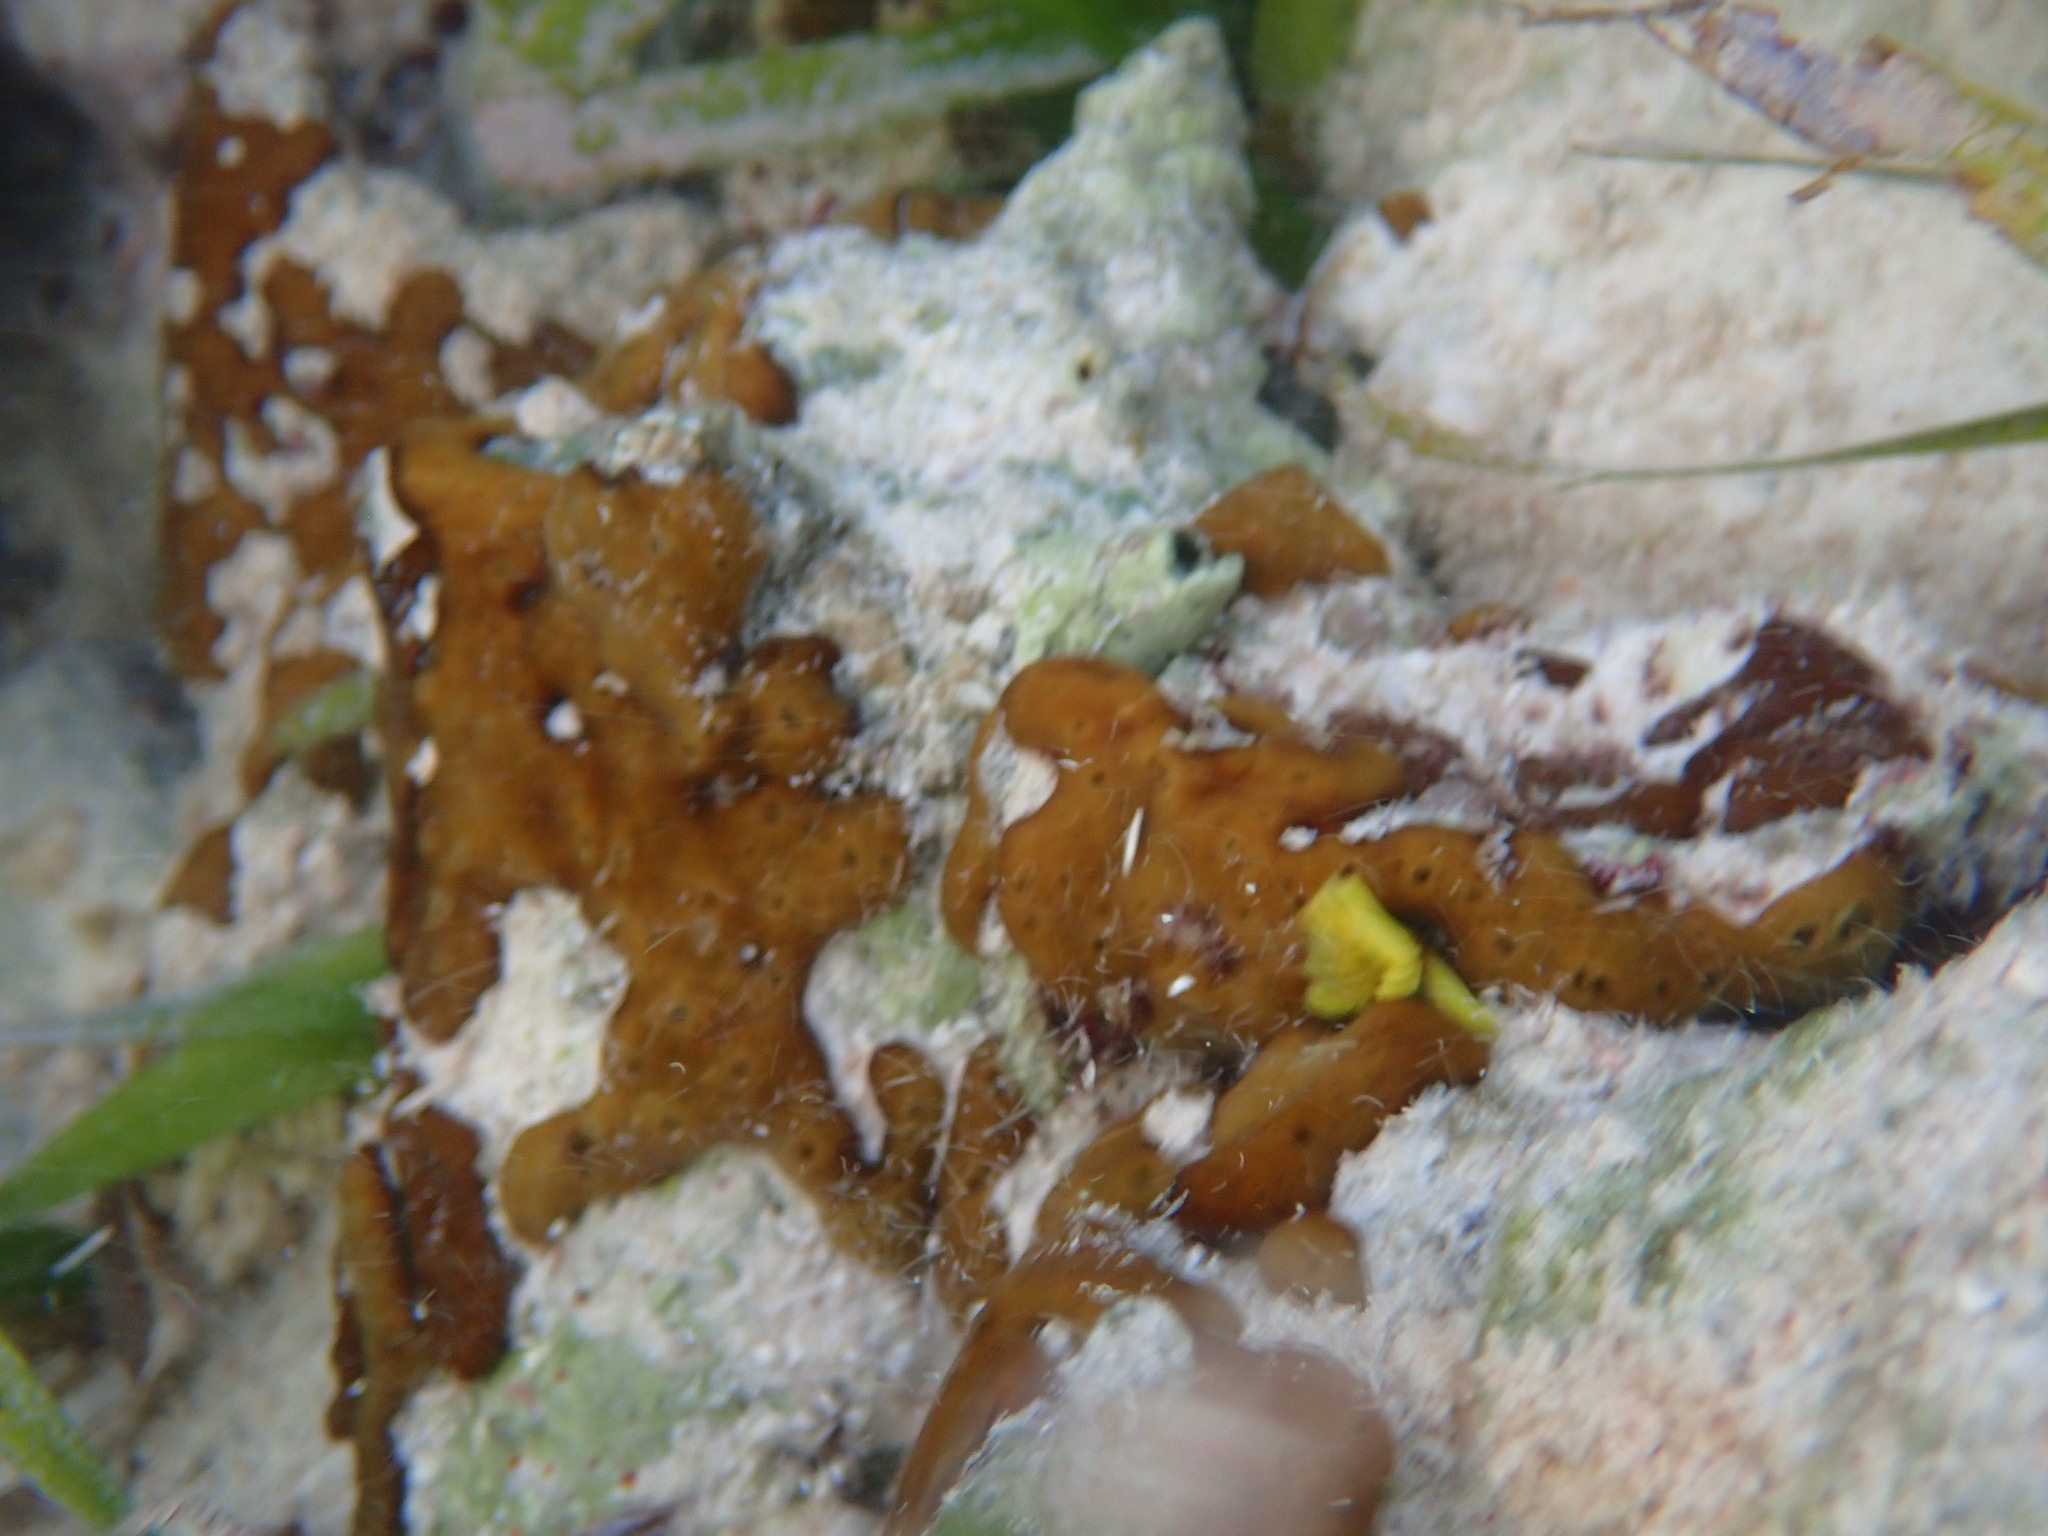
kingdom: Animalia
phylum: Porifera
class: Demospongiae
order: Chondrillida
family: Chondrillidae
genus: Chondrilla
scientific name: Chondrilla nucula
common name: Chicken liver sponge
